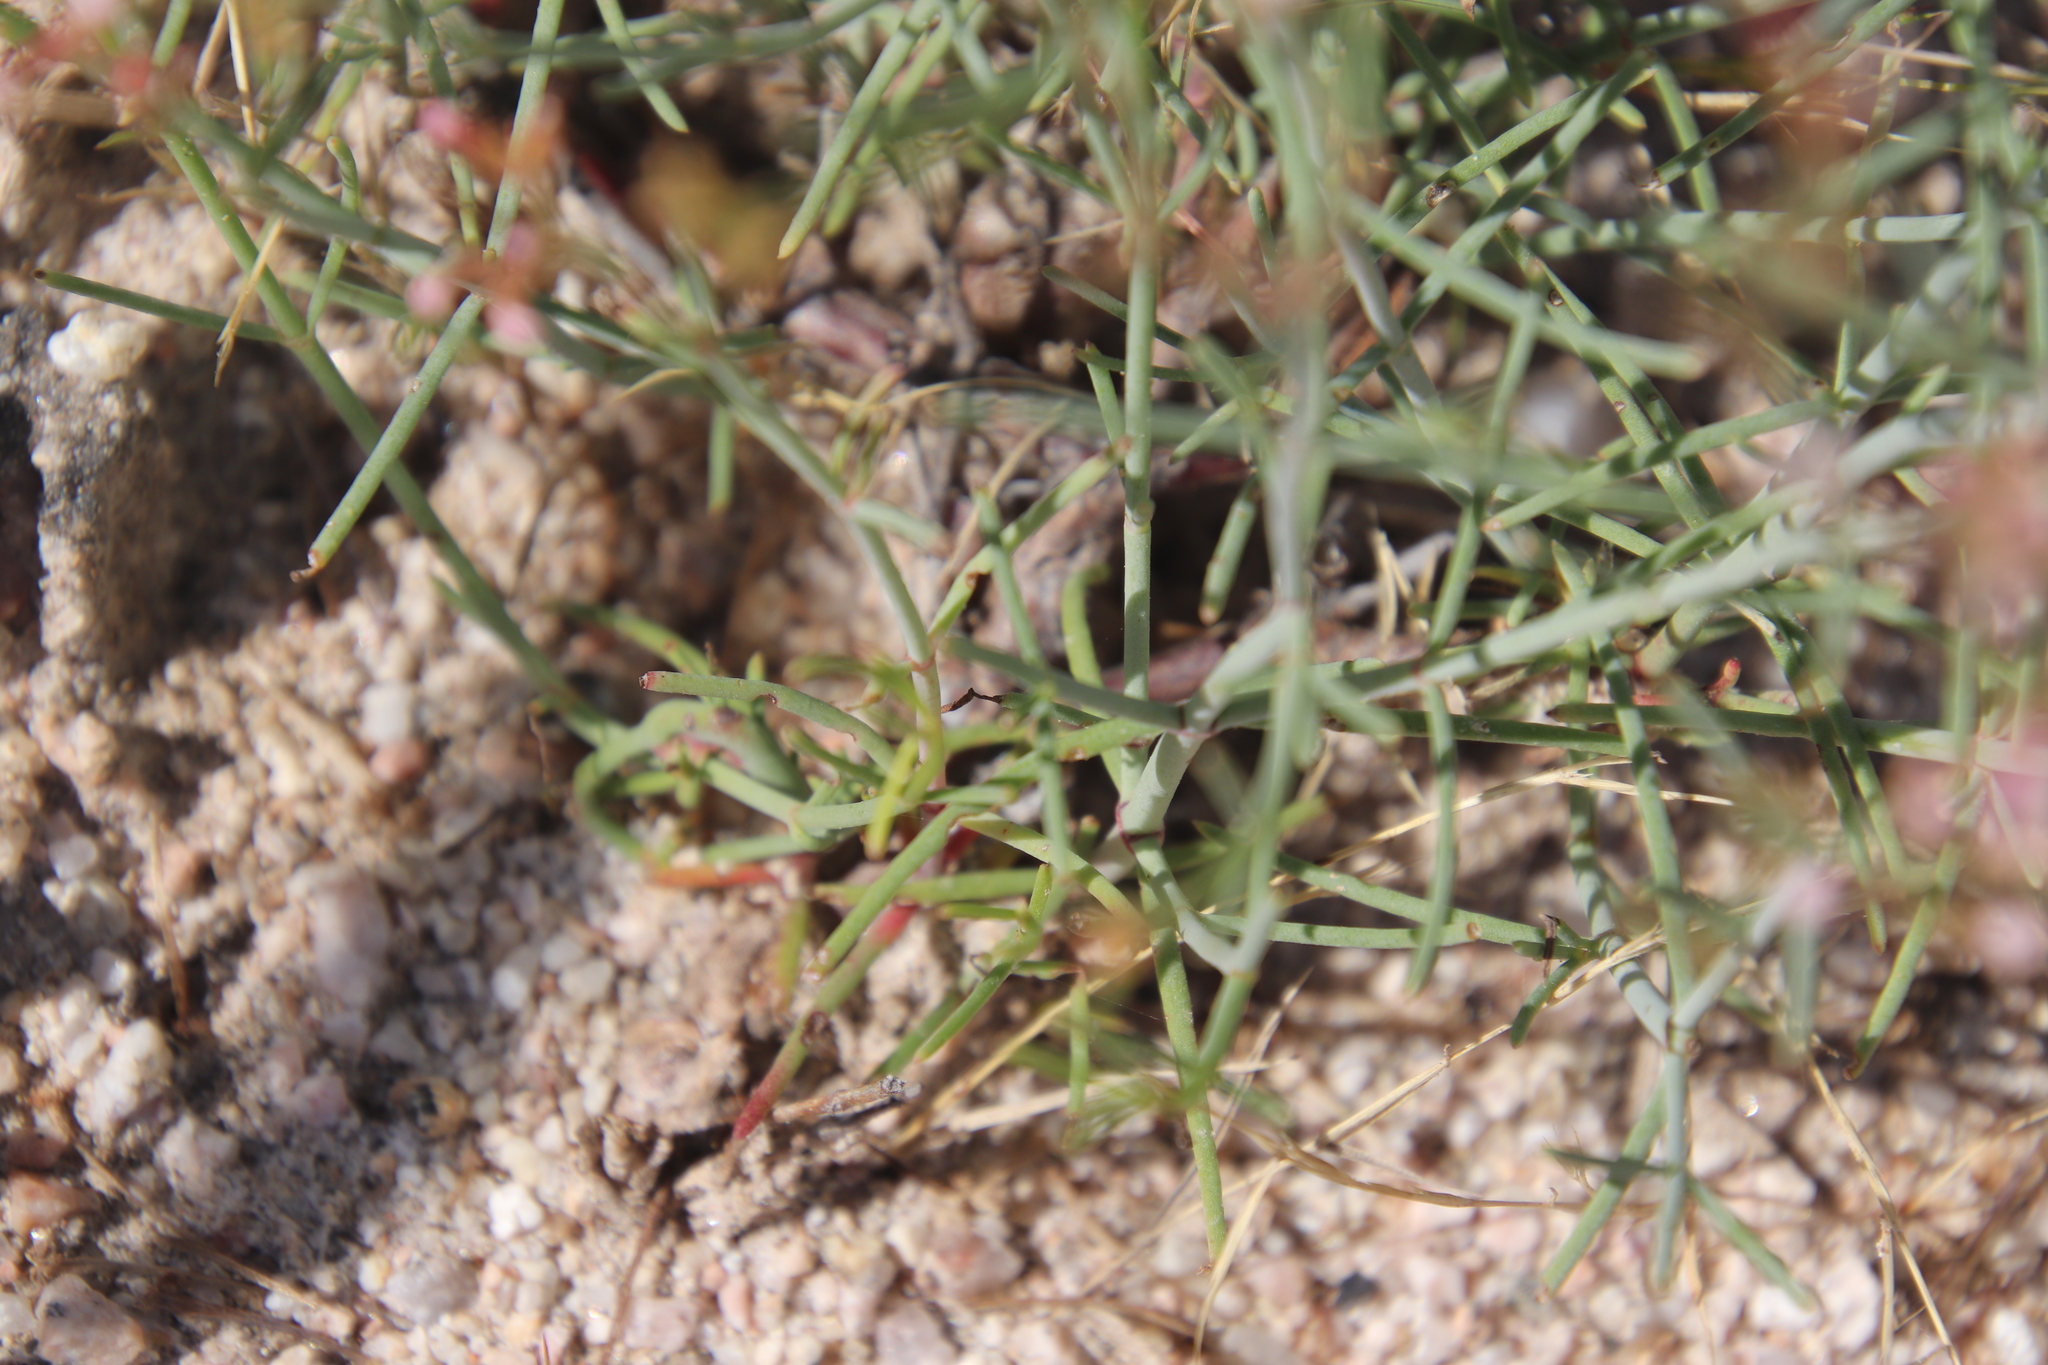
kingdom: Plantae
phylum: Tracheophyta
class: Magnoliopsida
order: Gentianales
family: Rubiaceae
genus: Stenotis
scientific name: Stenotis brevipes
